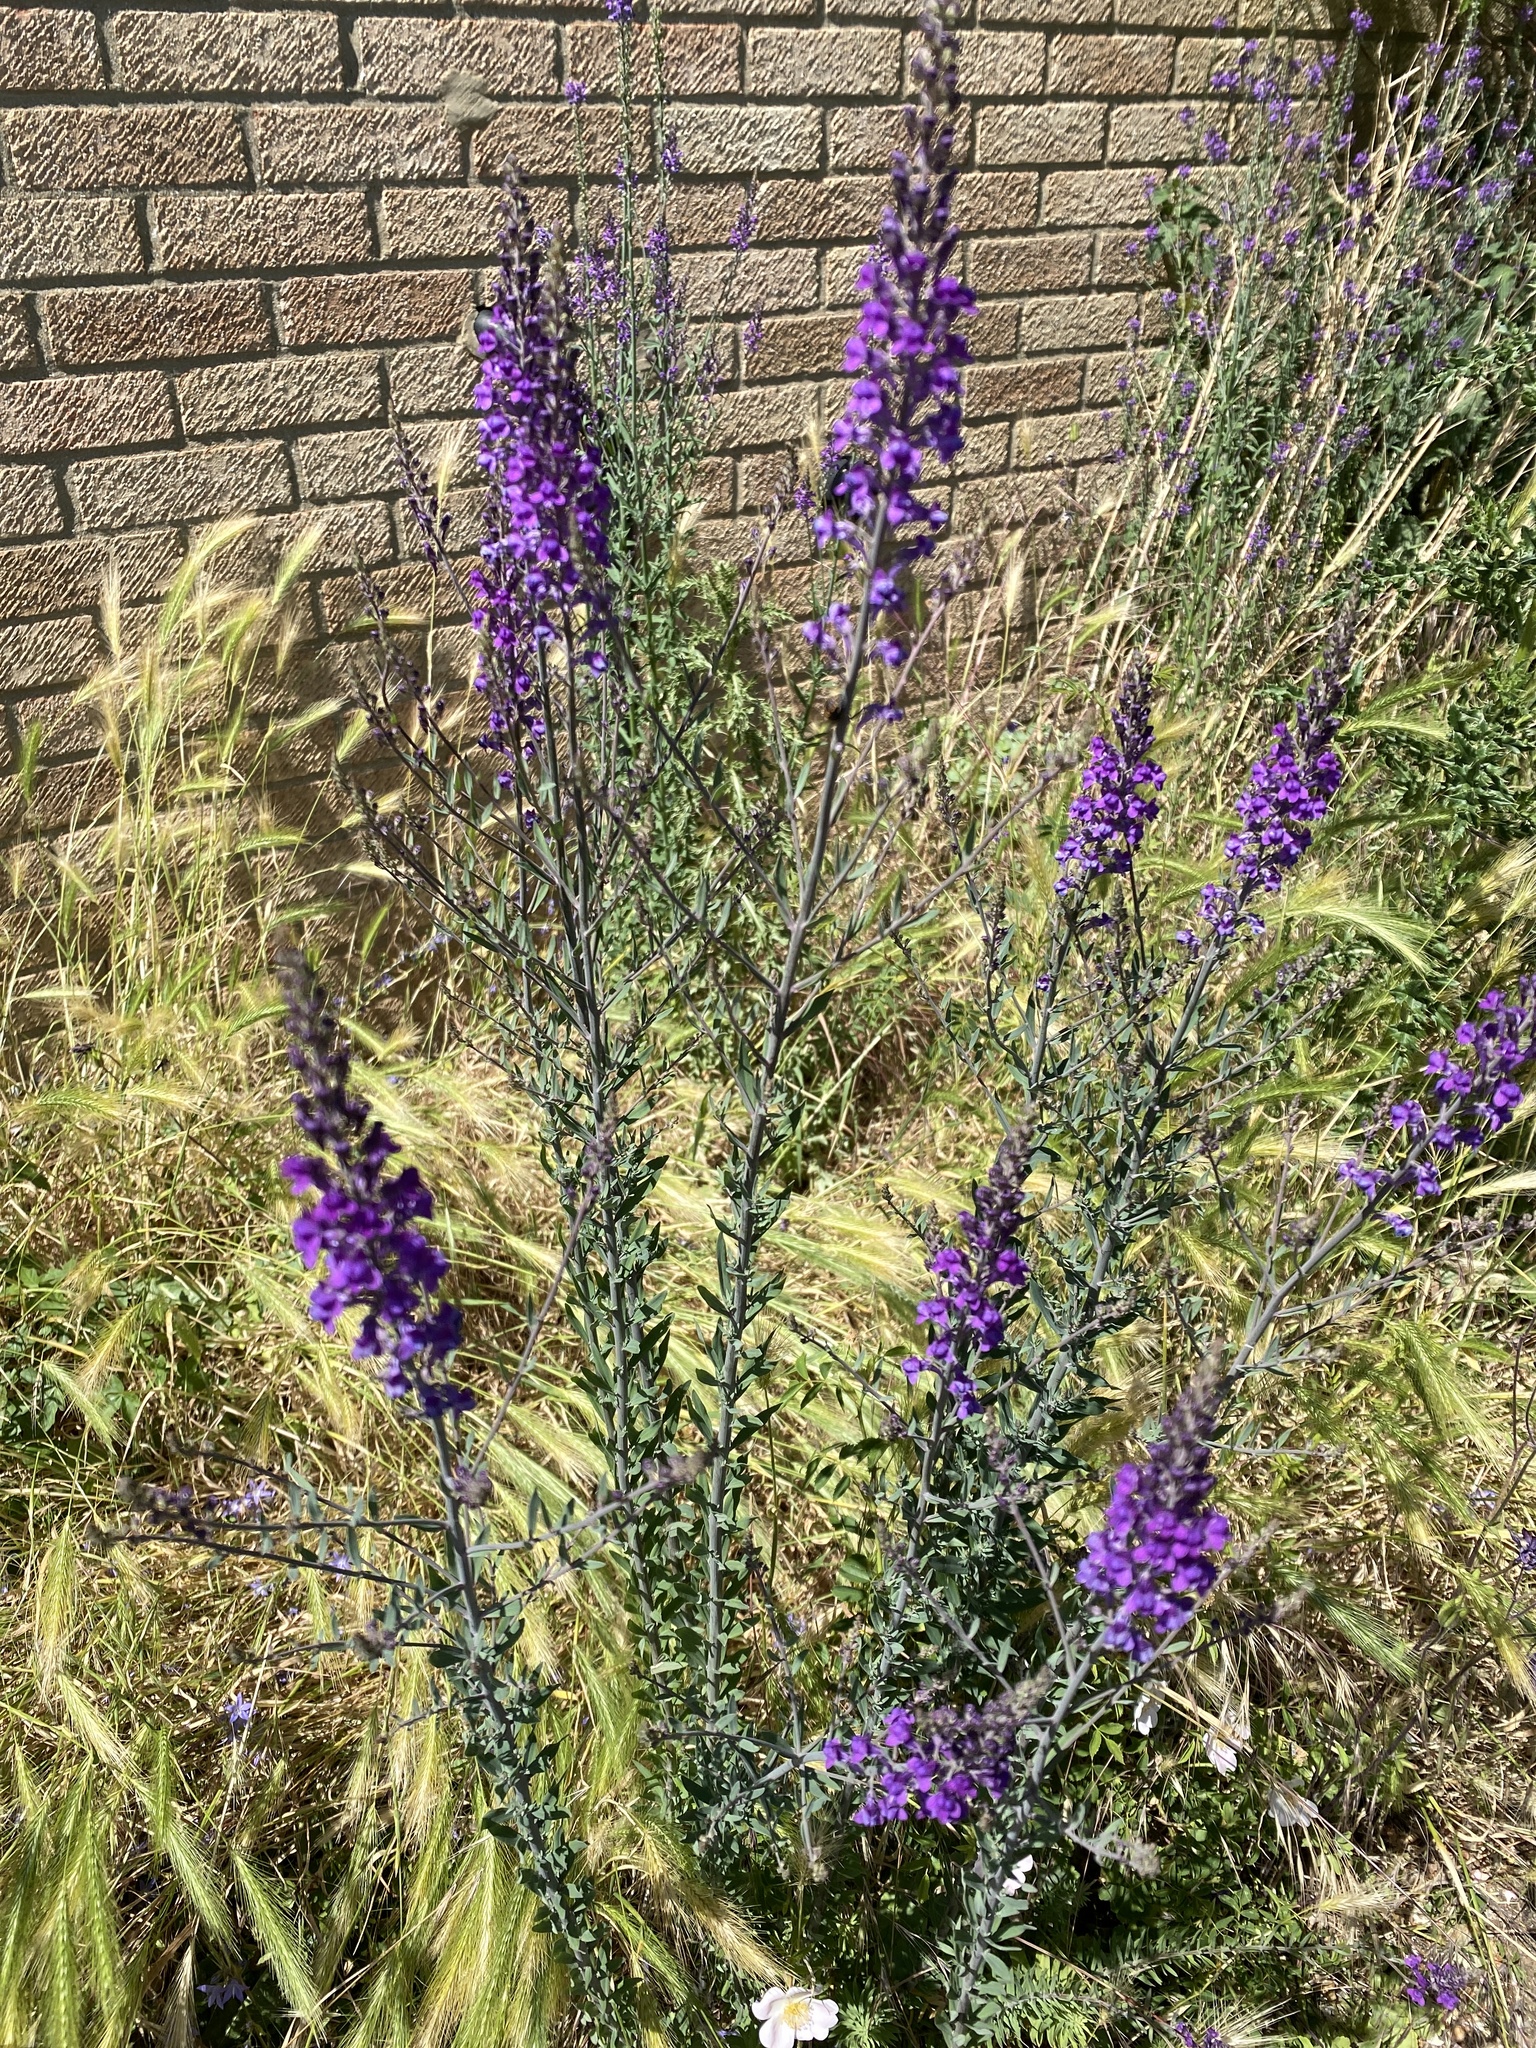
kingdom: Plantae
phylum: Tracheophyta
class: Magnoliopsida
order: Lamiales
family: Plantaginaceae
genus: Linaria
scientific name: Linaria purpurea
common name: Purple toadflax
